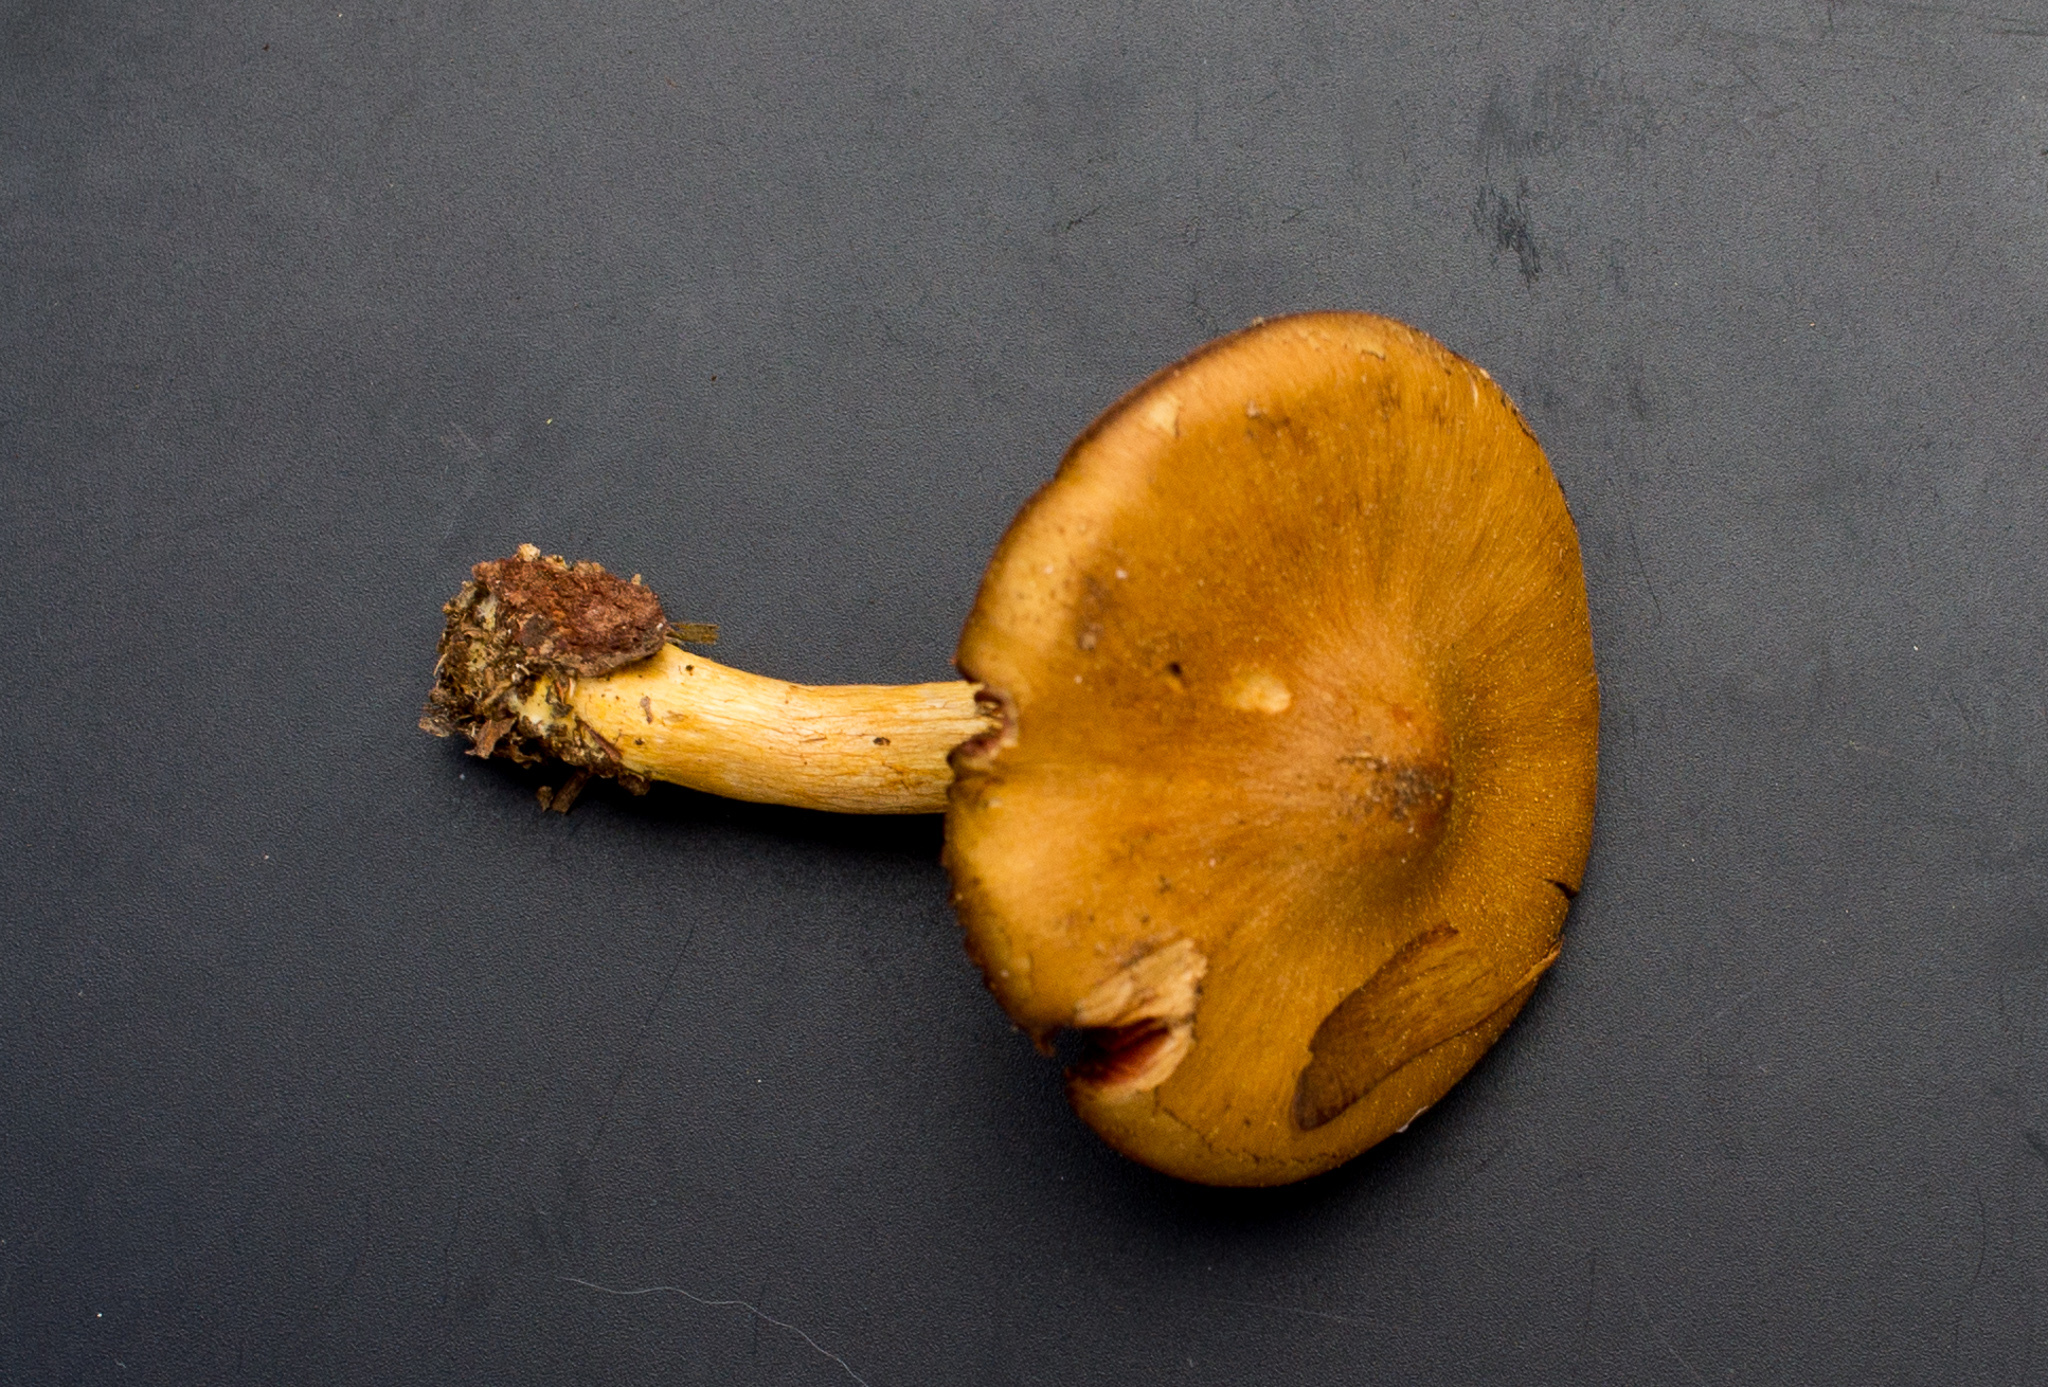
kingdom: Fungi
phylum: Basidiomycota
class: Agaricomycetes
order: Agaricales
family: Cortinariaceae
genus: Cortinarius
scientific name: Cortinarius semisanguineus
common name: Surprise webcap
